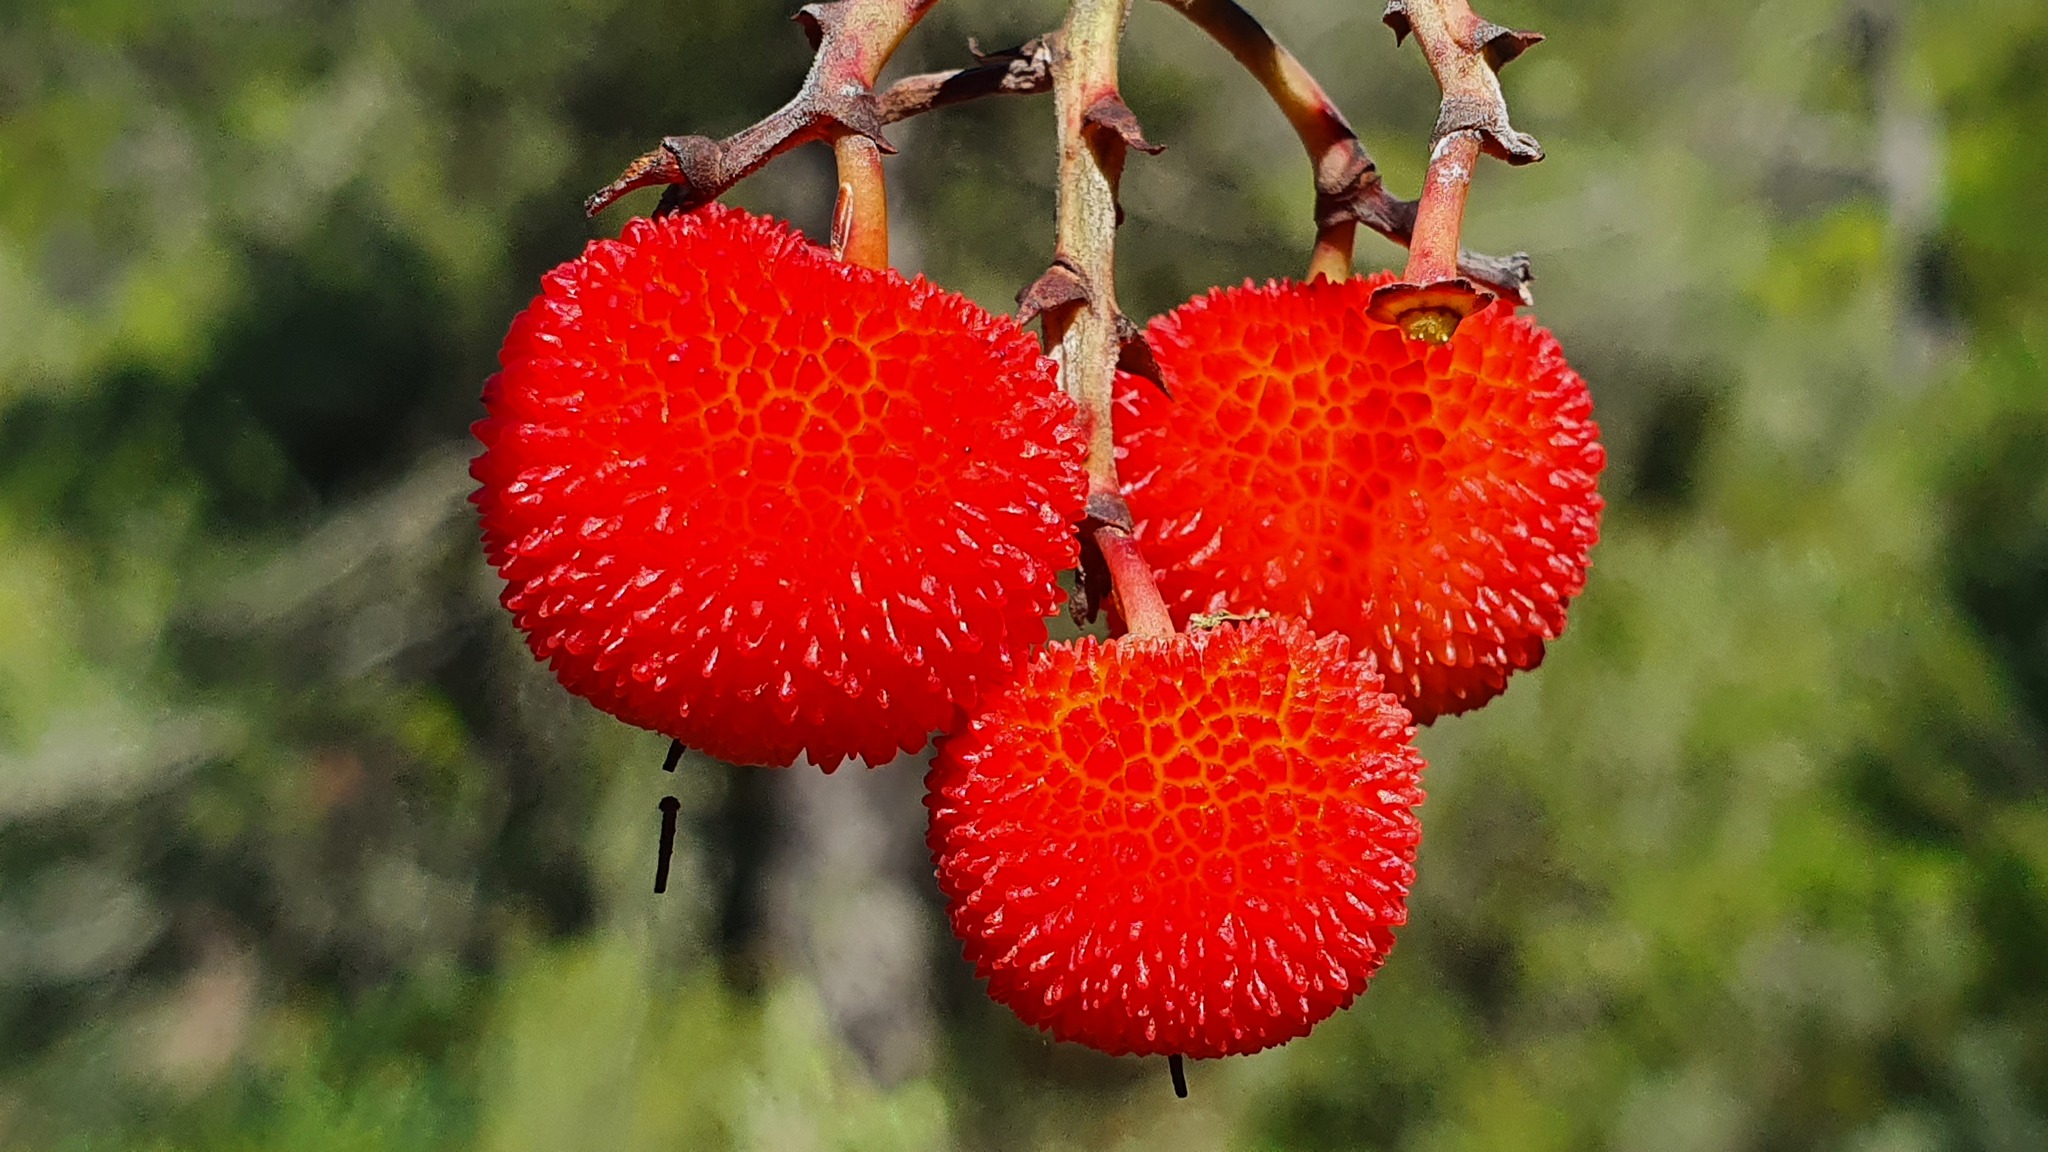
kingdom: Plantae
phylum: Tracheophyta
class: Magnoliopsida
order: Ericales
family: Ericaceae
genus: Arbutus
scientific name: Arbutus unedo
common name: Strawberry-tree
